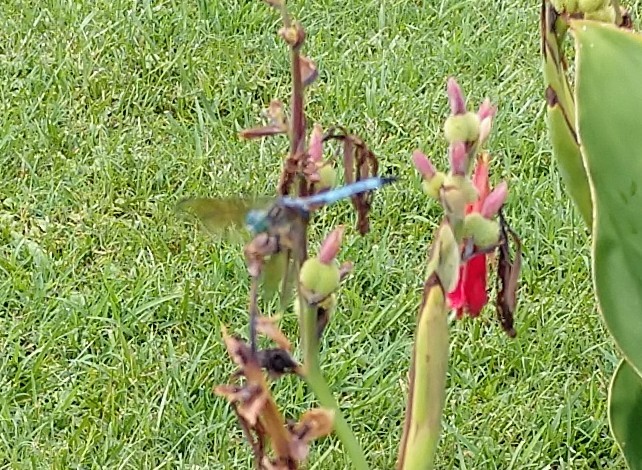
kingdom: Animalia
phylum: Arthropoda
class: Insecta
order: Odonata
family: Libellulidae
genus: Pachydiplax
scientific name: Pachydiplax longipennis
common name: Blue dasher
